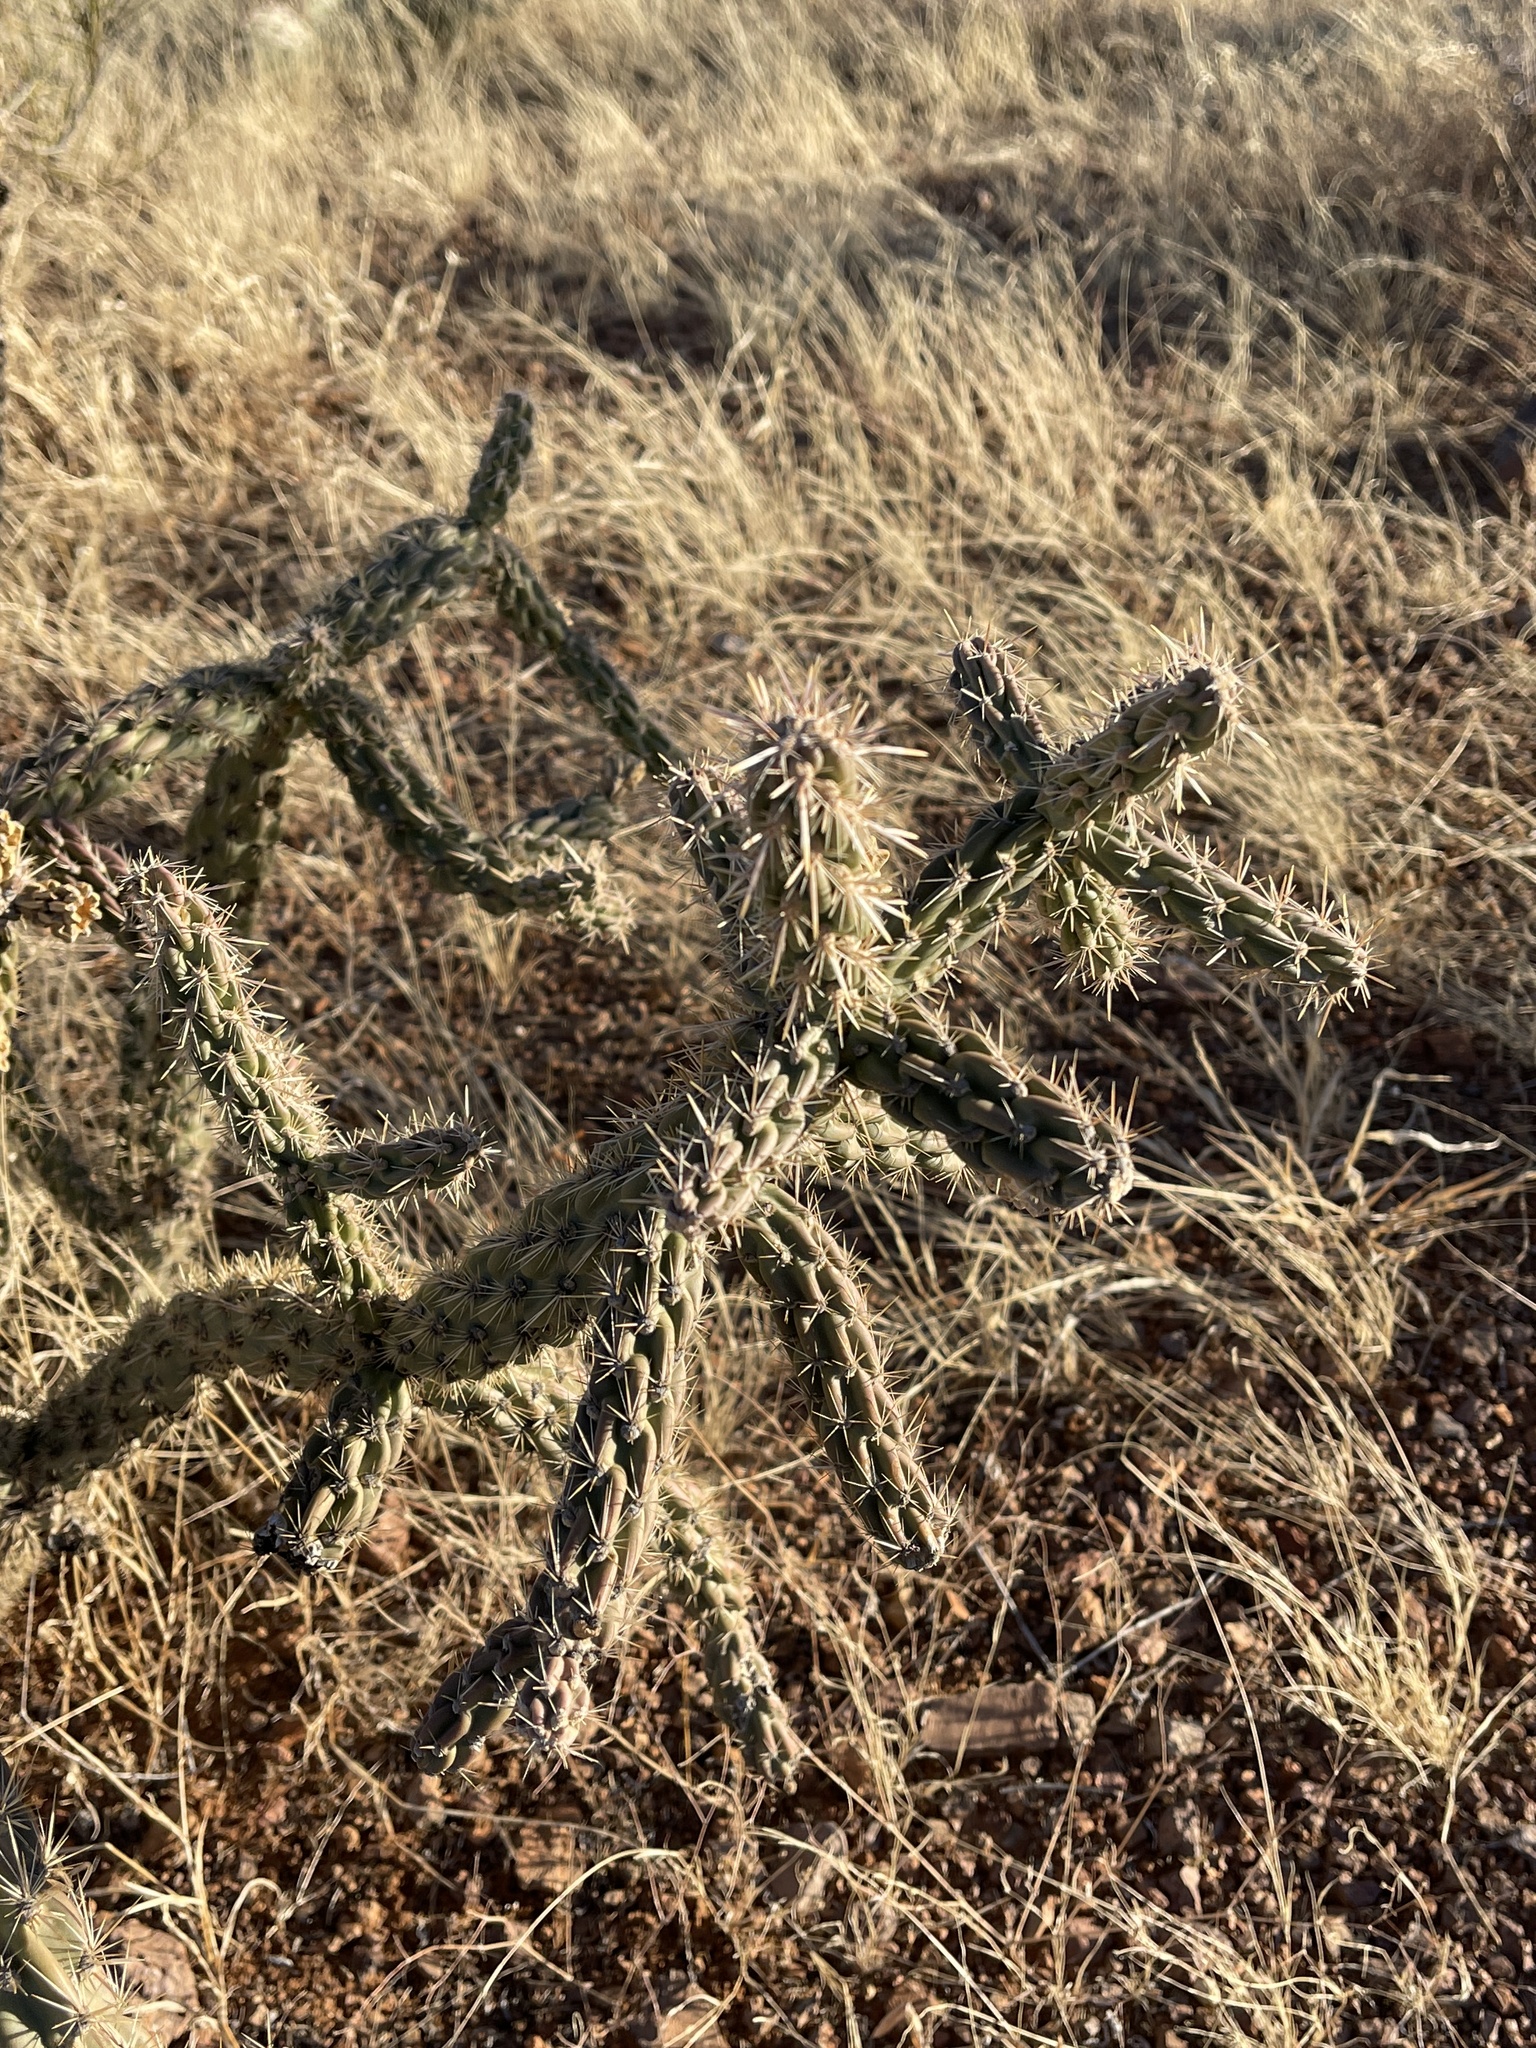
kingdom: Plantae
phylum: Tracheophyta
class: Magnoliopsida
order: Caryophyllales
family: Cactaceae
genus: Cylindropuntia
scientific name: Cylindropuntia imbricata
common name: Candelabrum cactus
